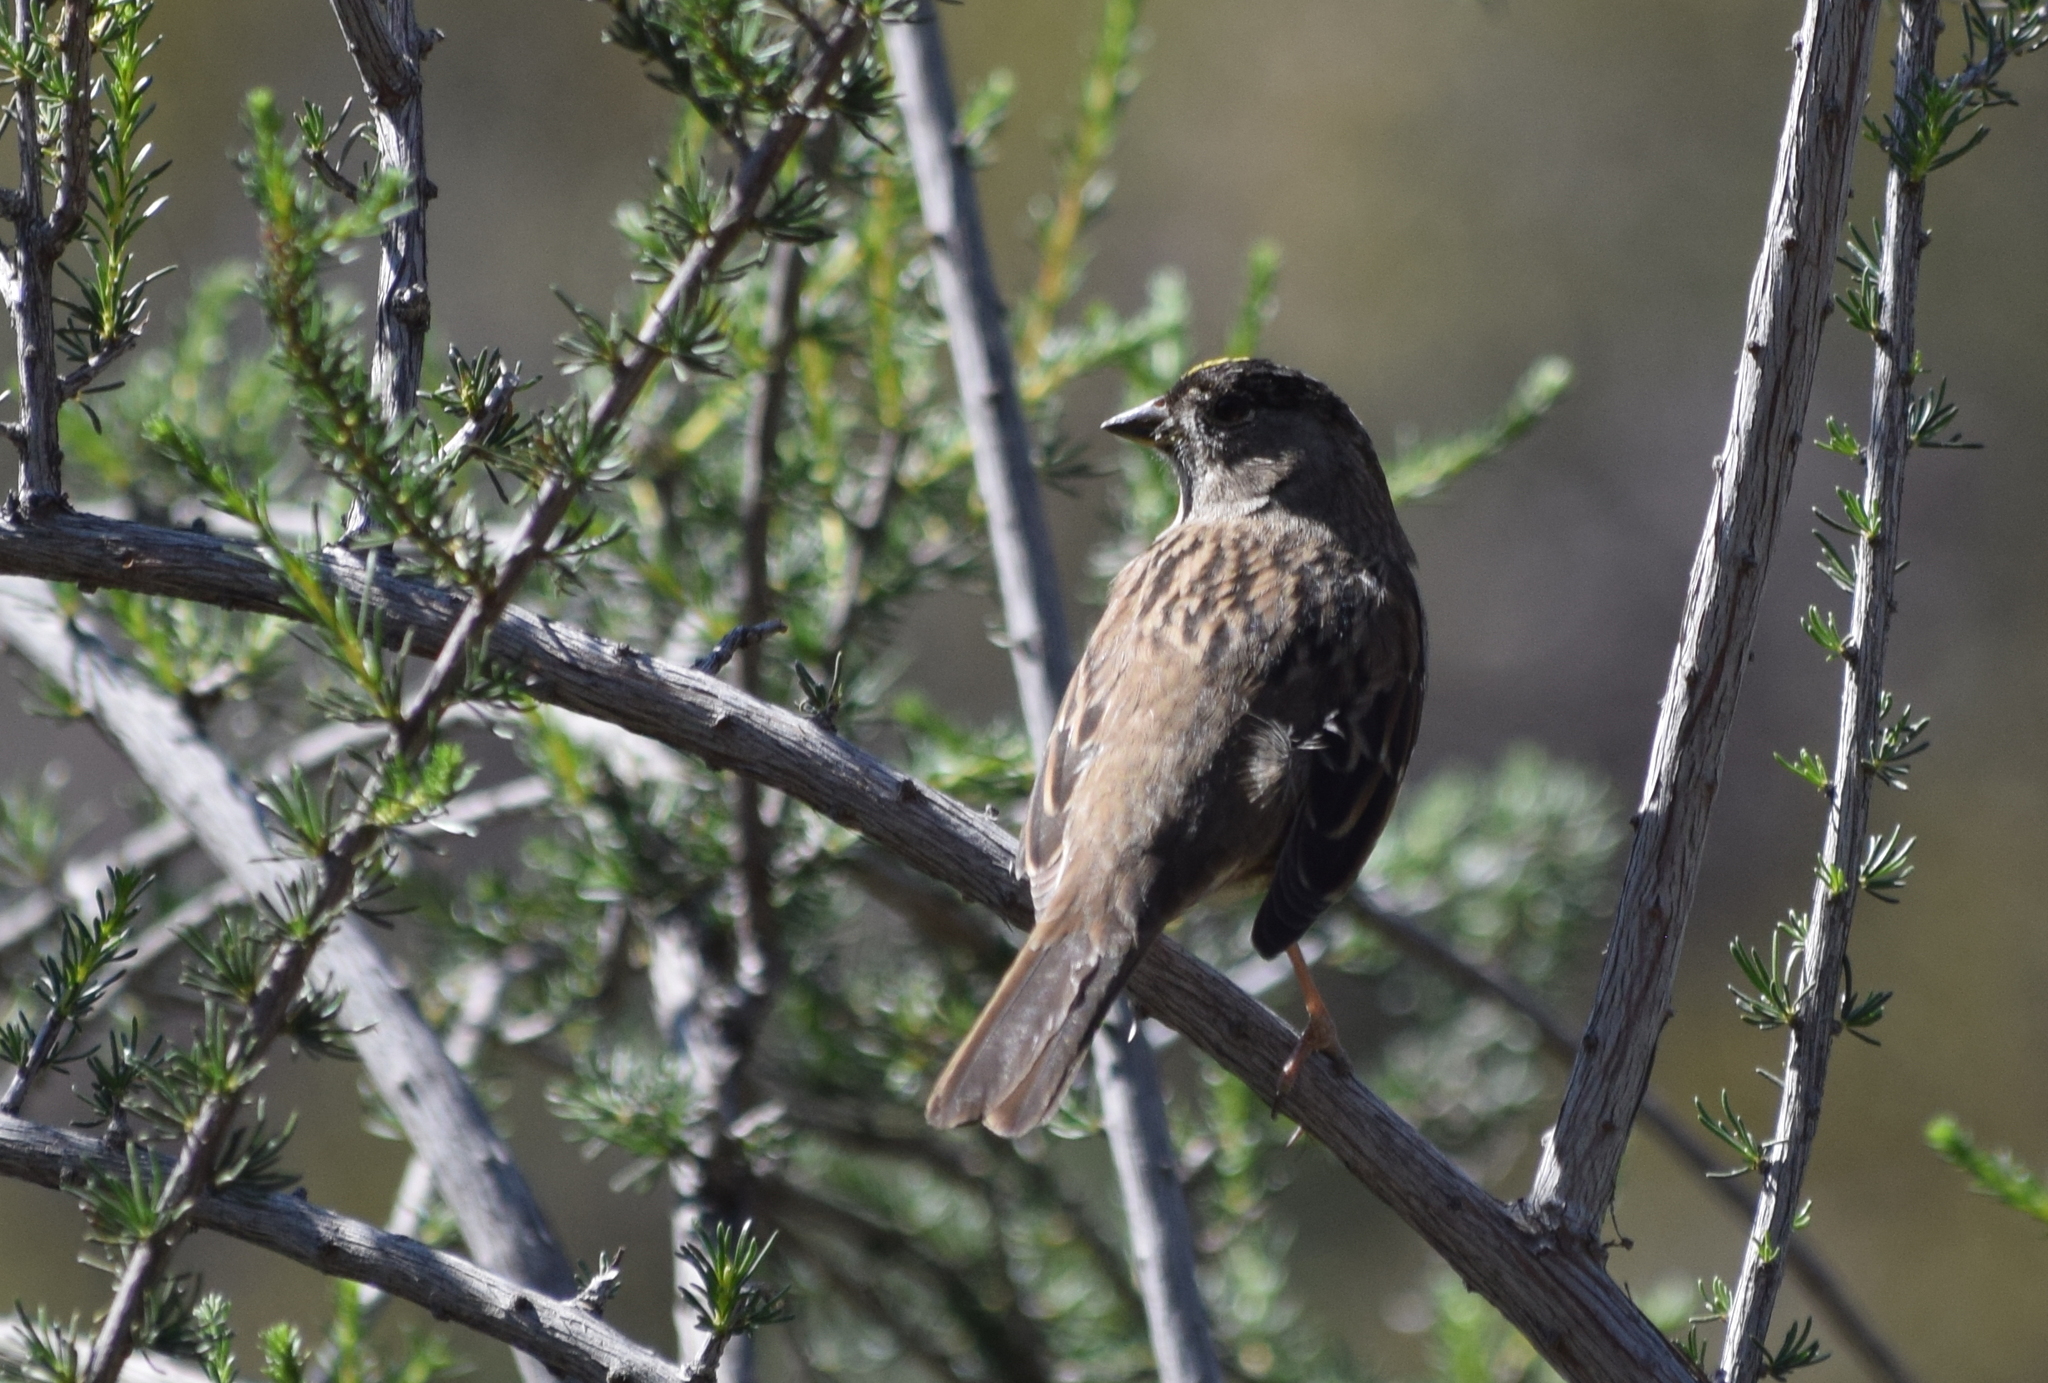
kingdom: Animalia
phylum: Chordata
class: Aves
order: Passeriformes
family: Passerellidae
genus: Zonotrichia
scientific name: Zonotrichia atricapilla
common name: Golden-crowned sparrow
